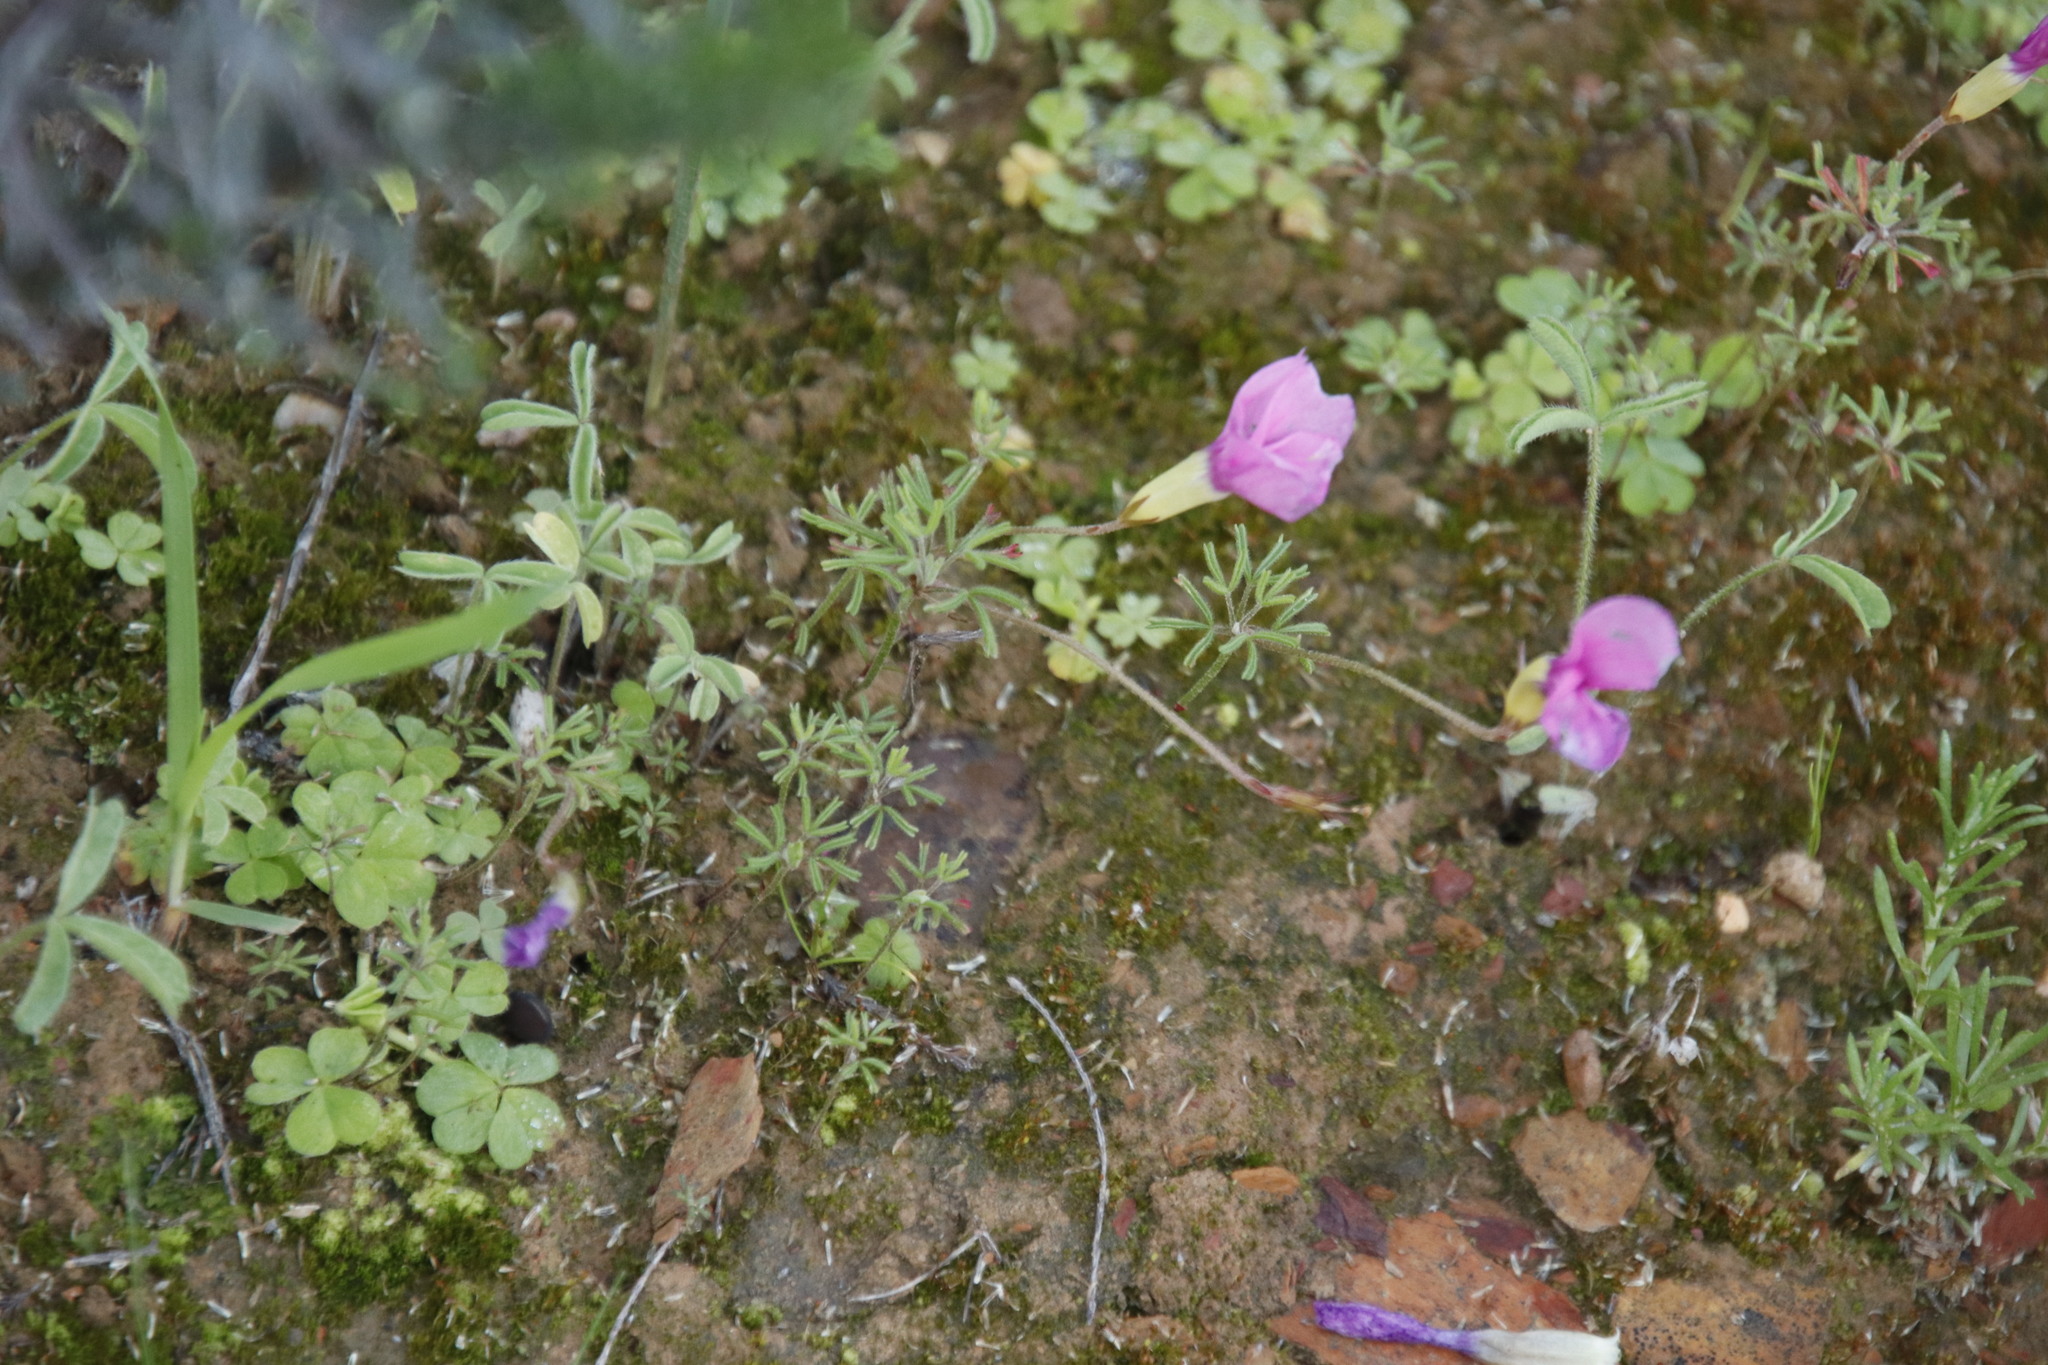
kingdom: Plantae
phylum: Tracheophyta
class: Magnoliopsida
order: Oxalidales
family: Oxalidaceae
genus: Oxalis
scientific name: Oxalis glabra
